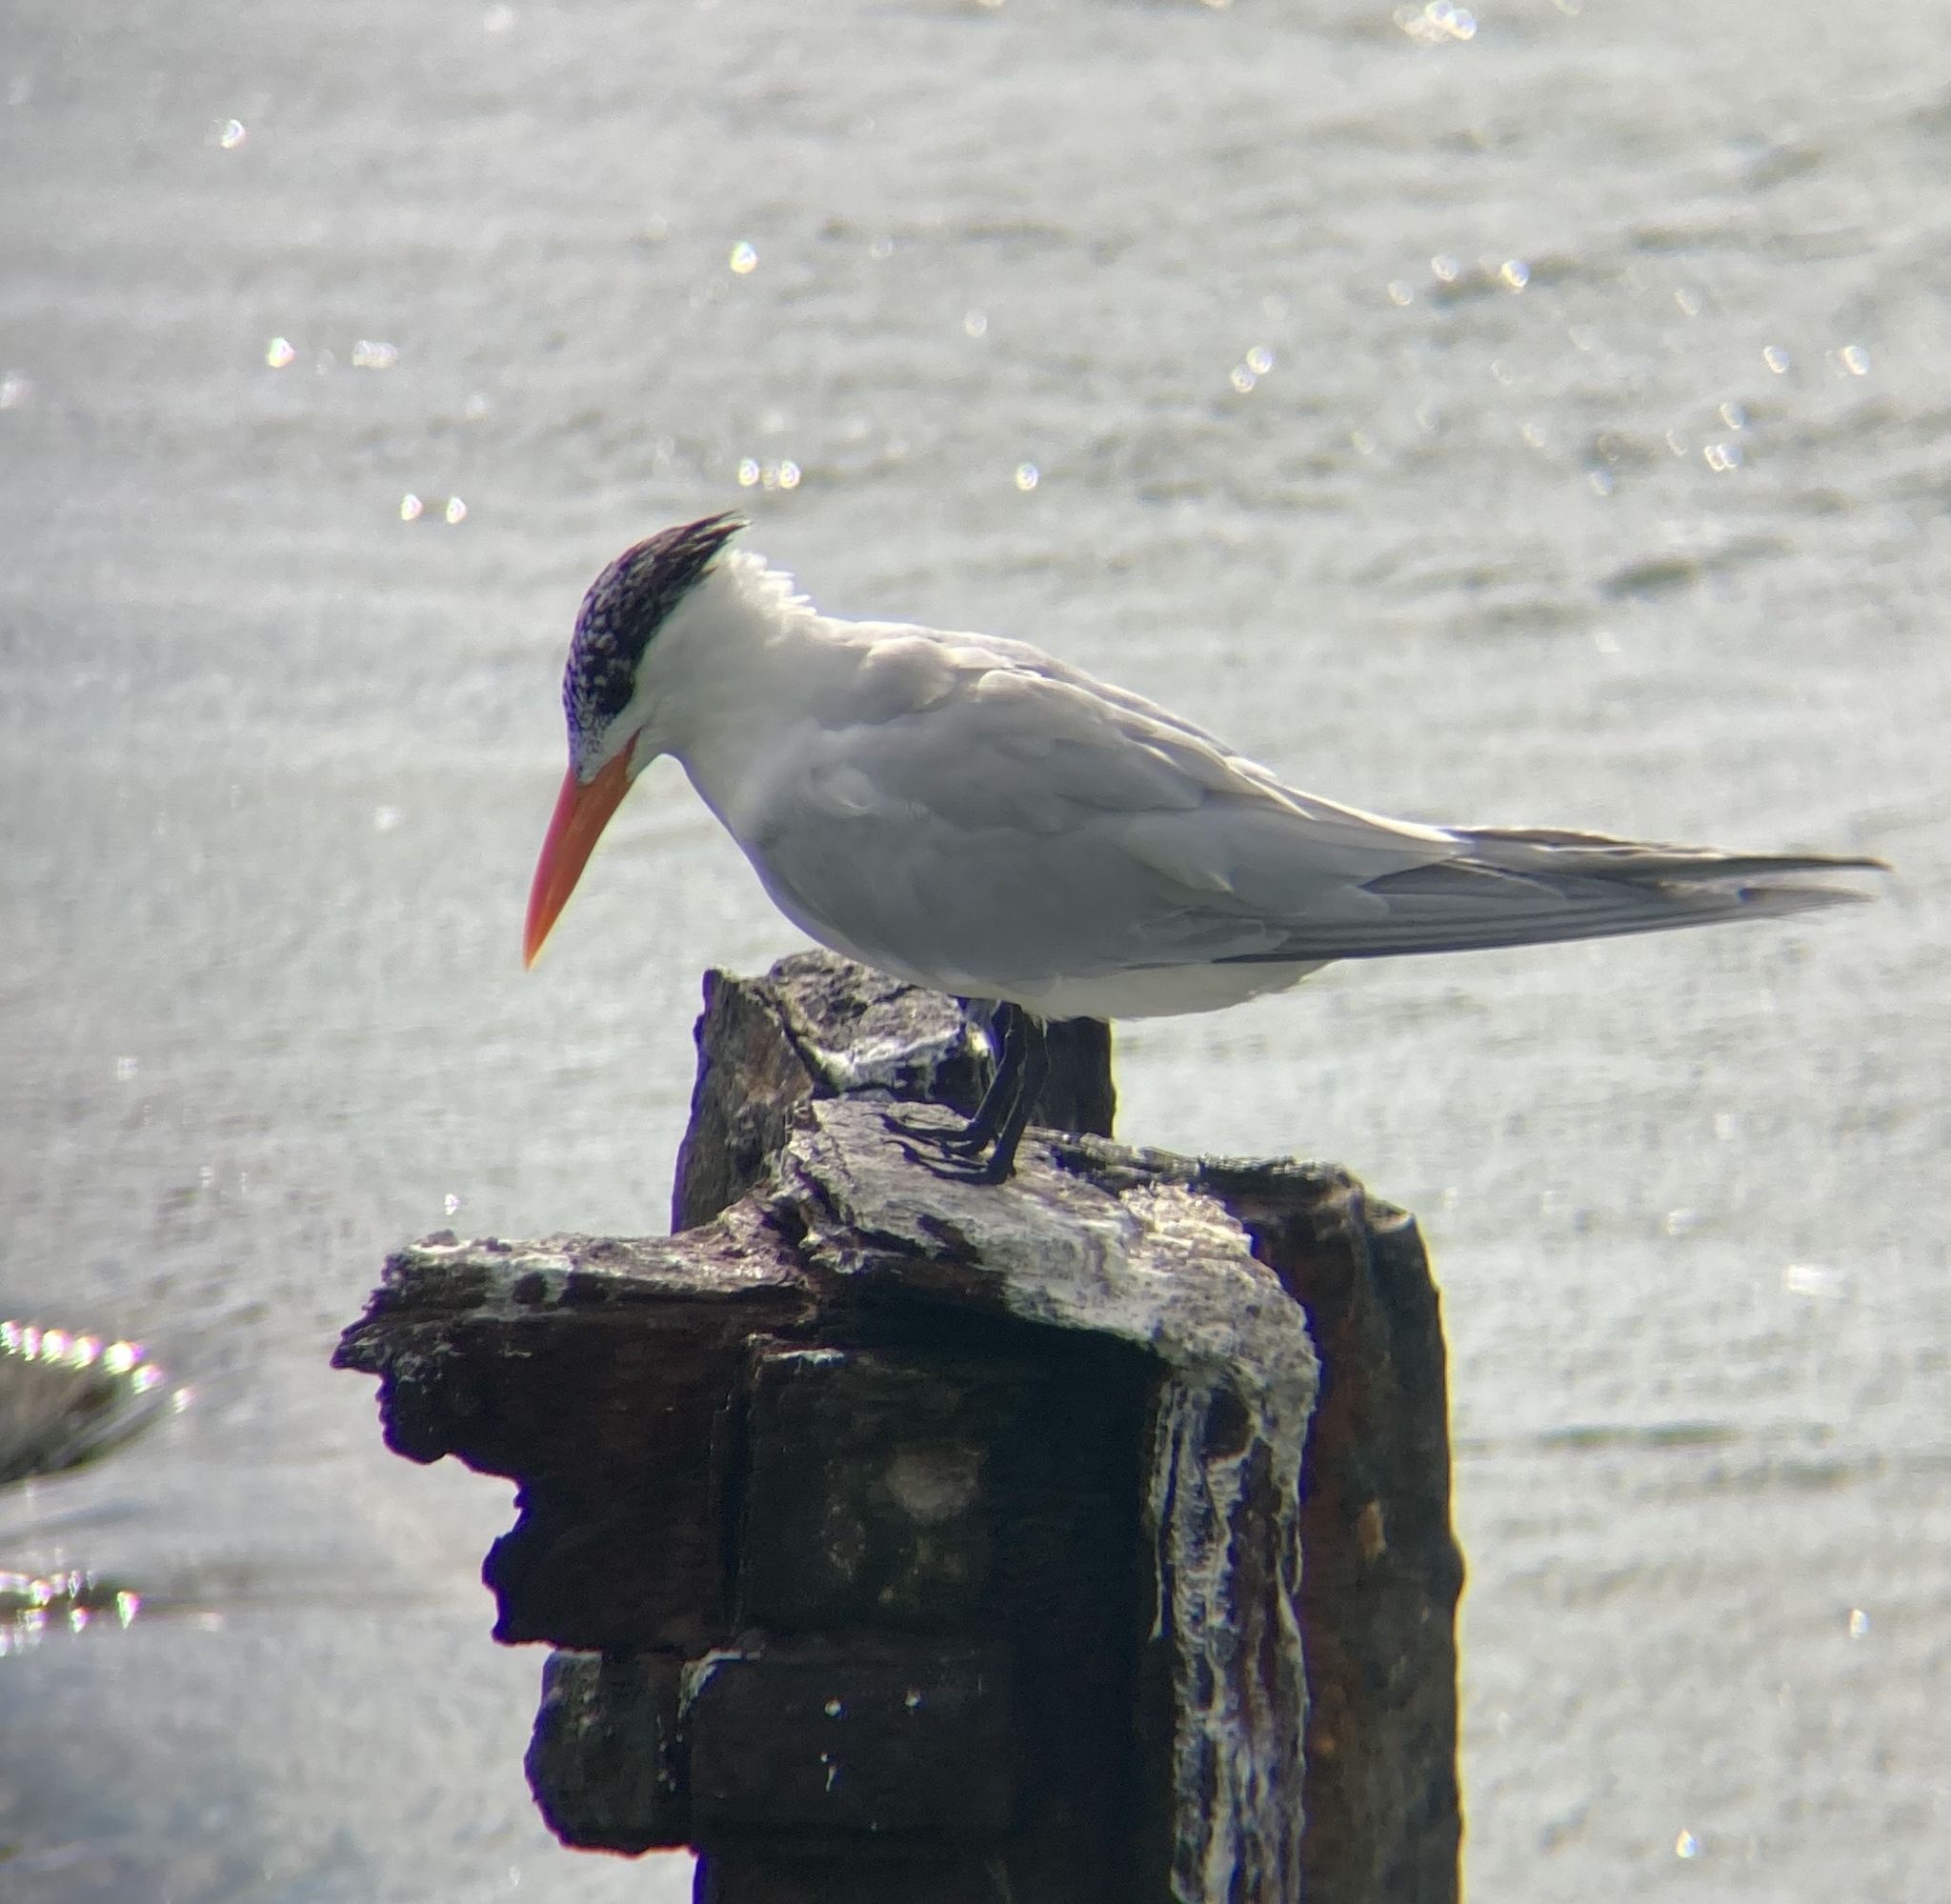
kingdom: Animalia
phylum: Chordata
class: Aves
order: Charadriiformes
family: Laridae
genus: Thalasseus
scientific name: Thalasseus maximus
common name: Royal tern
